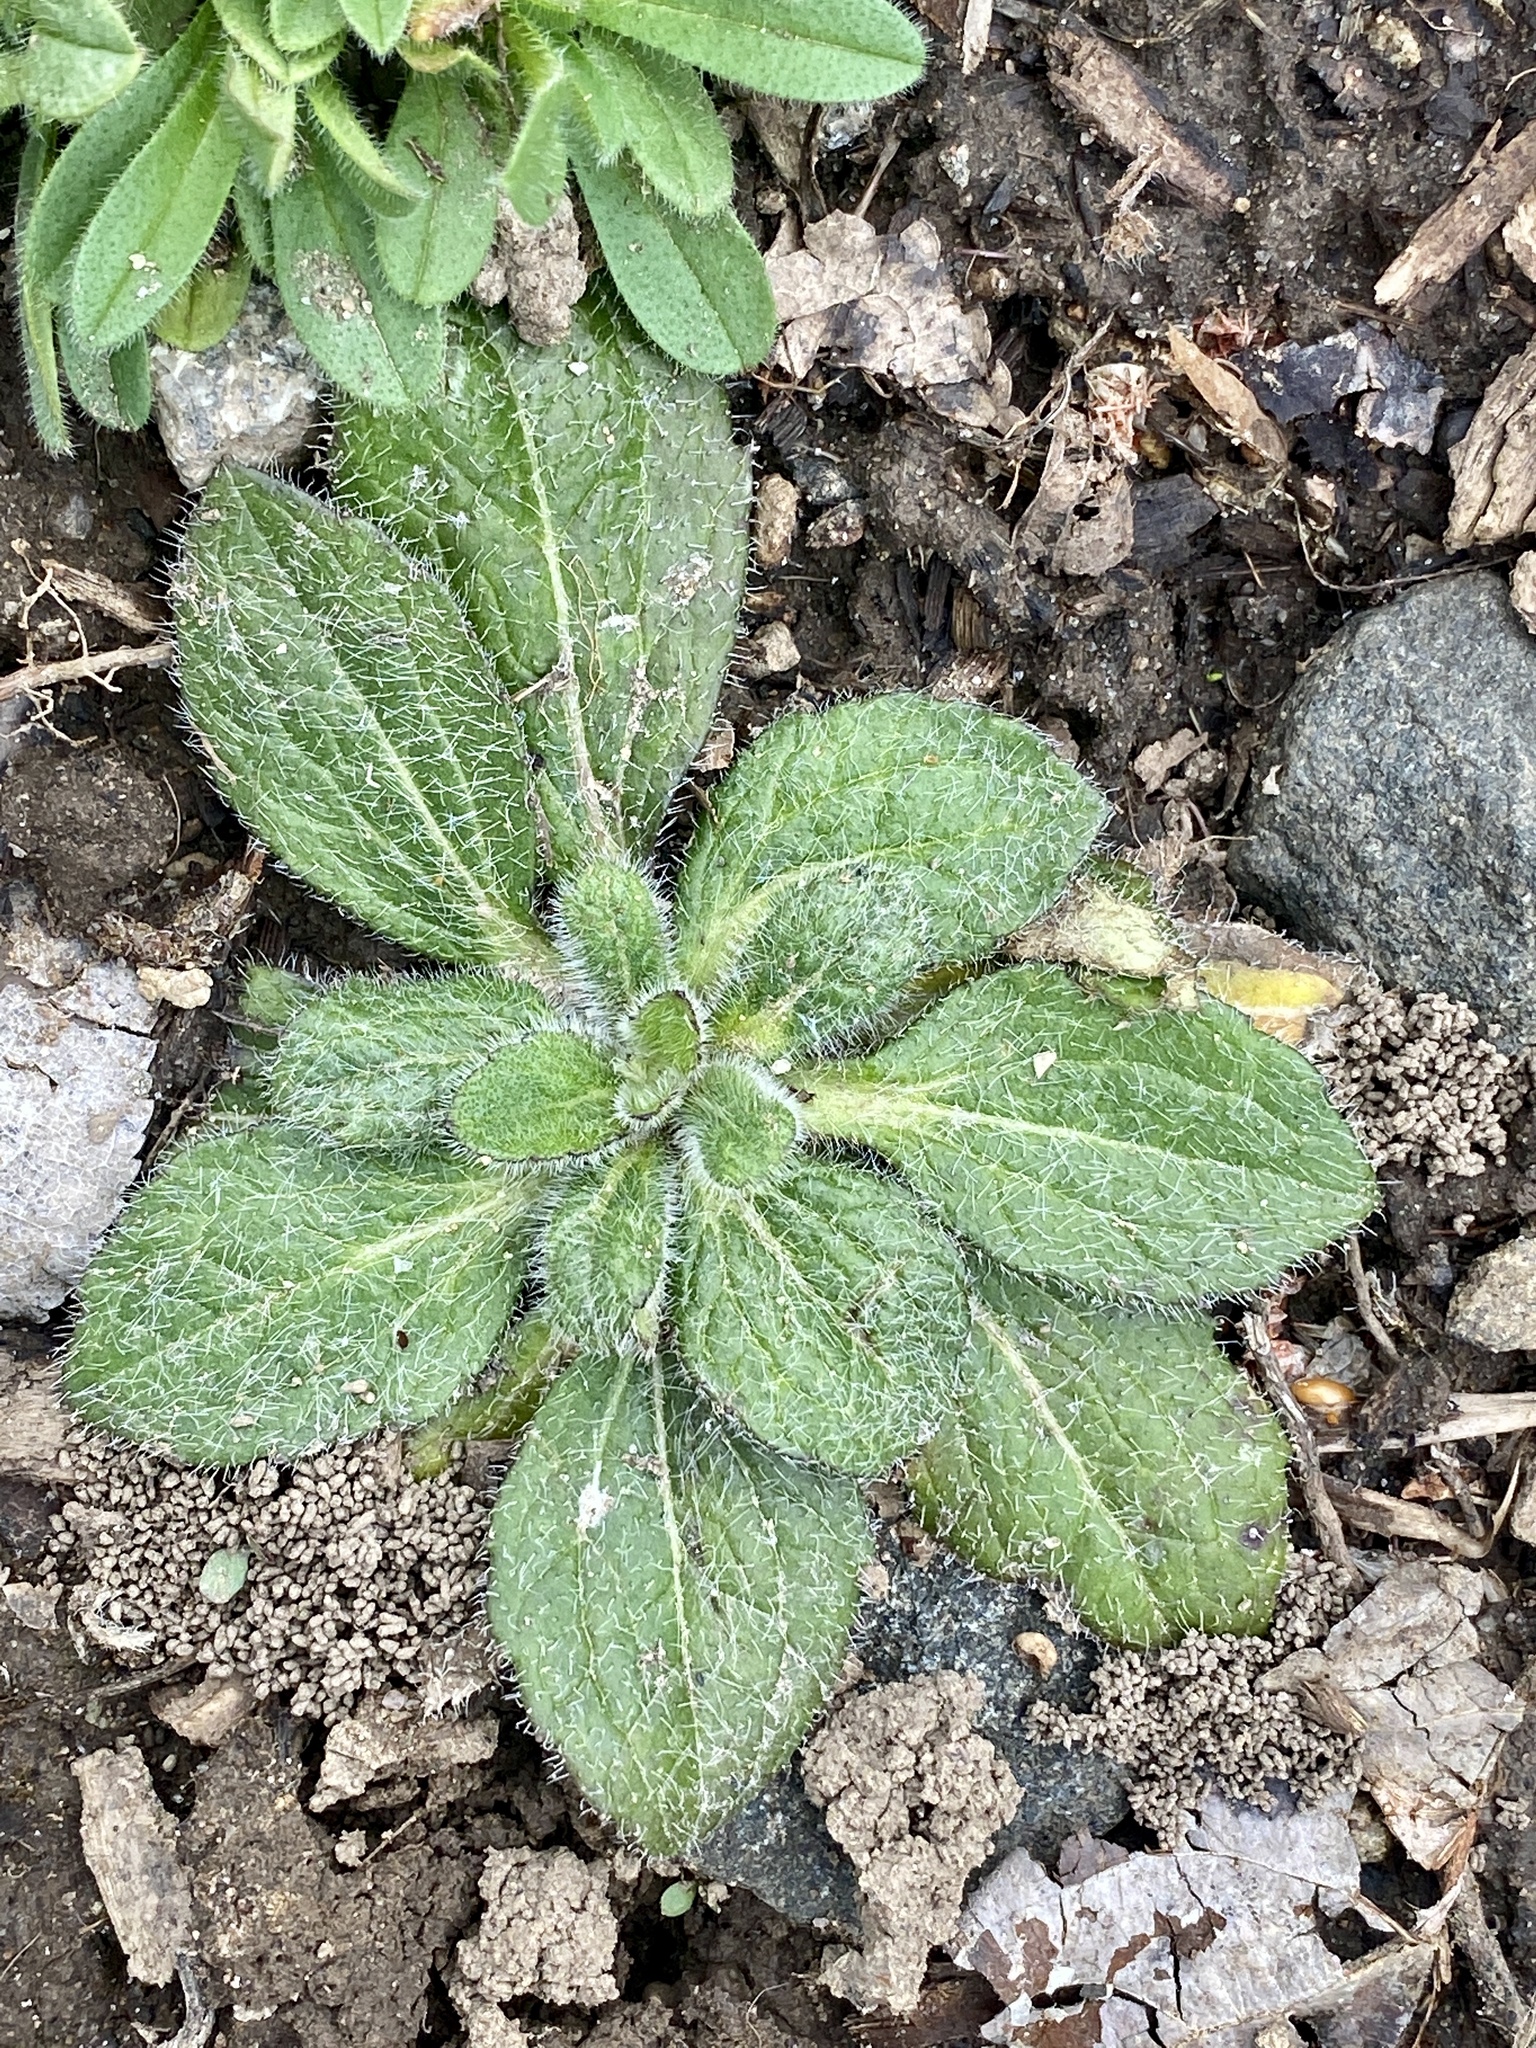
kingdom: Plantae
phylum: Tracheophyta
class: Magnoliopsida
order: Asterales
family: Asteraceae
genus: Rudbeckia
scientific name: Rudbeckia hirta
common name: Black-eyed-susan
